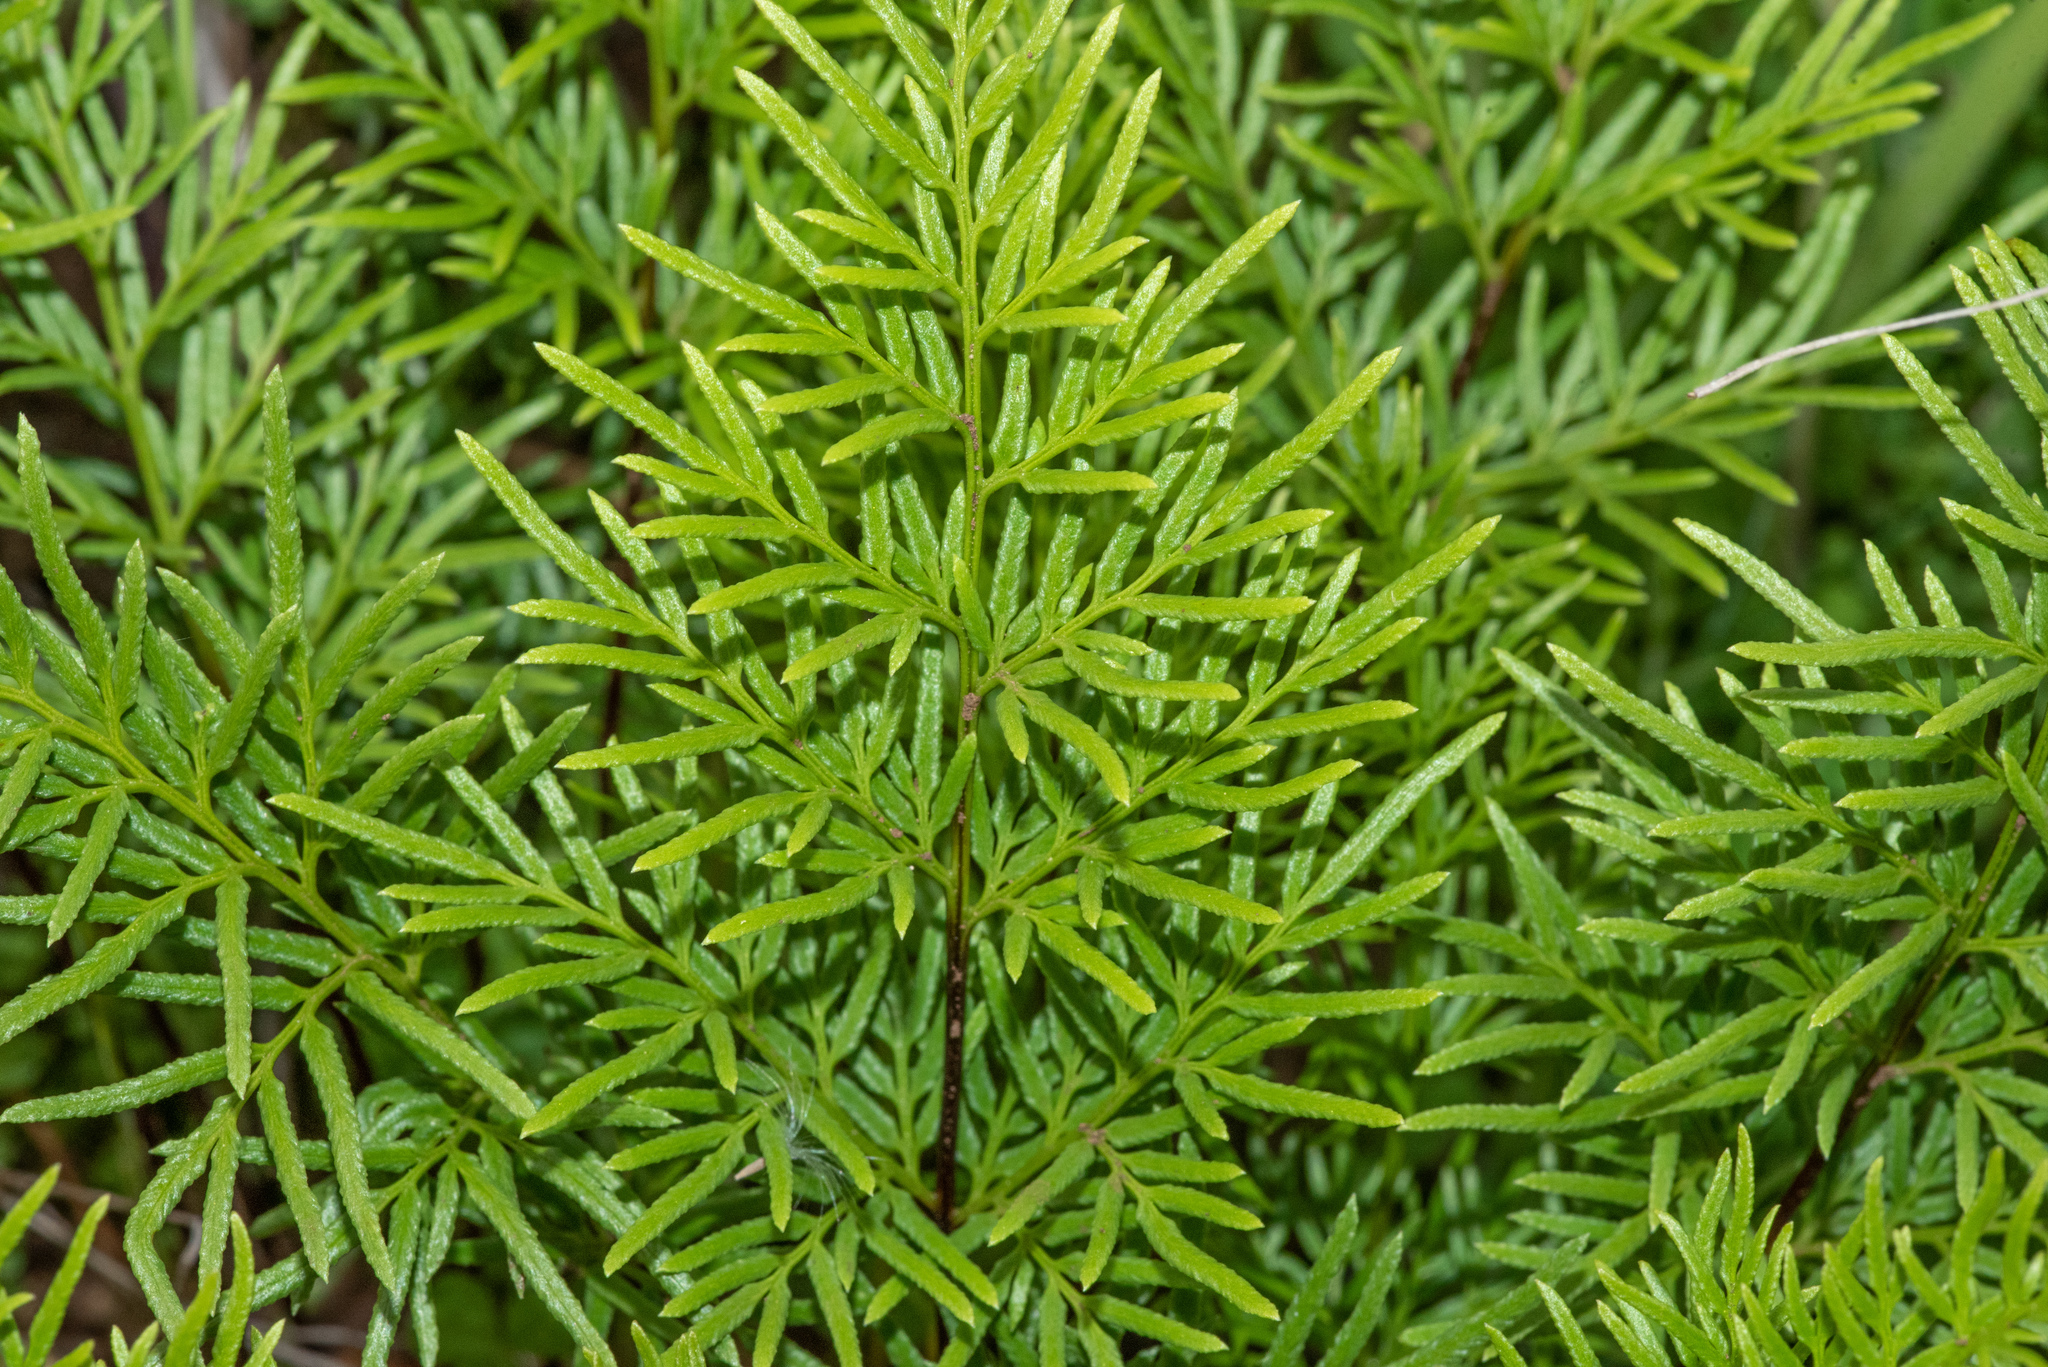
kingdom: Plantae
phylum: Tracheophyta
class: Polypodiopsida
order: Polypodiales
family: Pteridaceae
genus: Aspidotis
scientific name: Aspidotis densa
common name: Indian's dream
